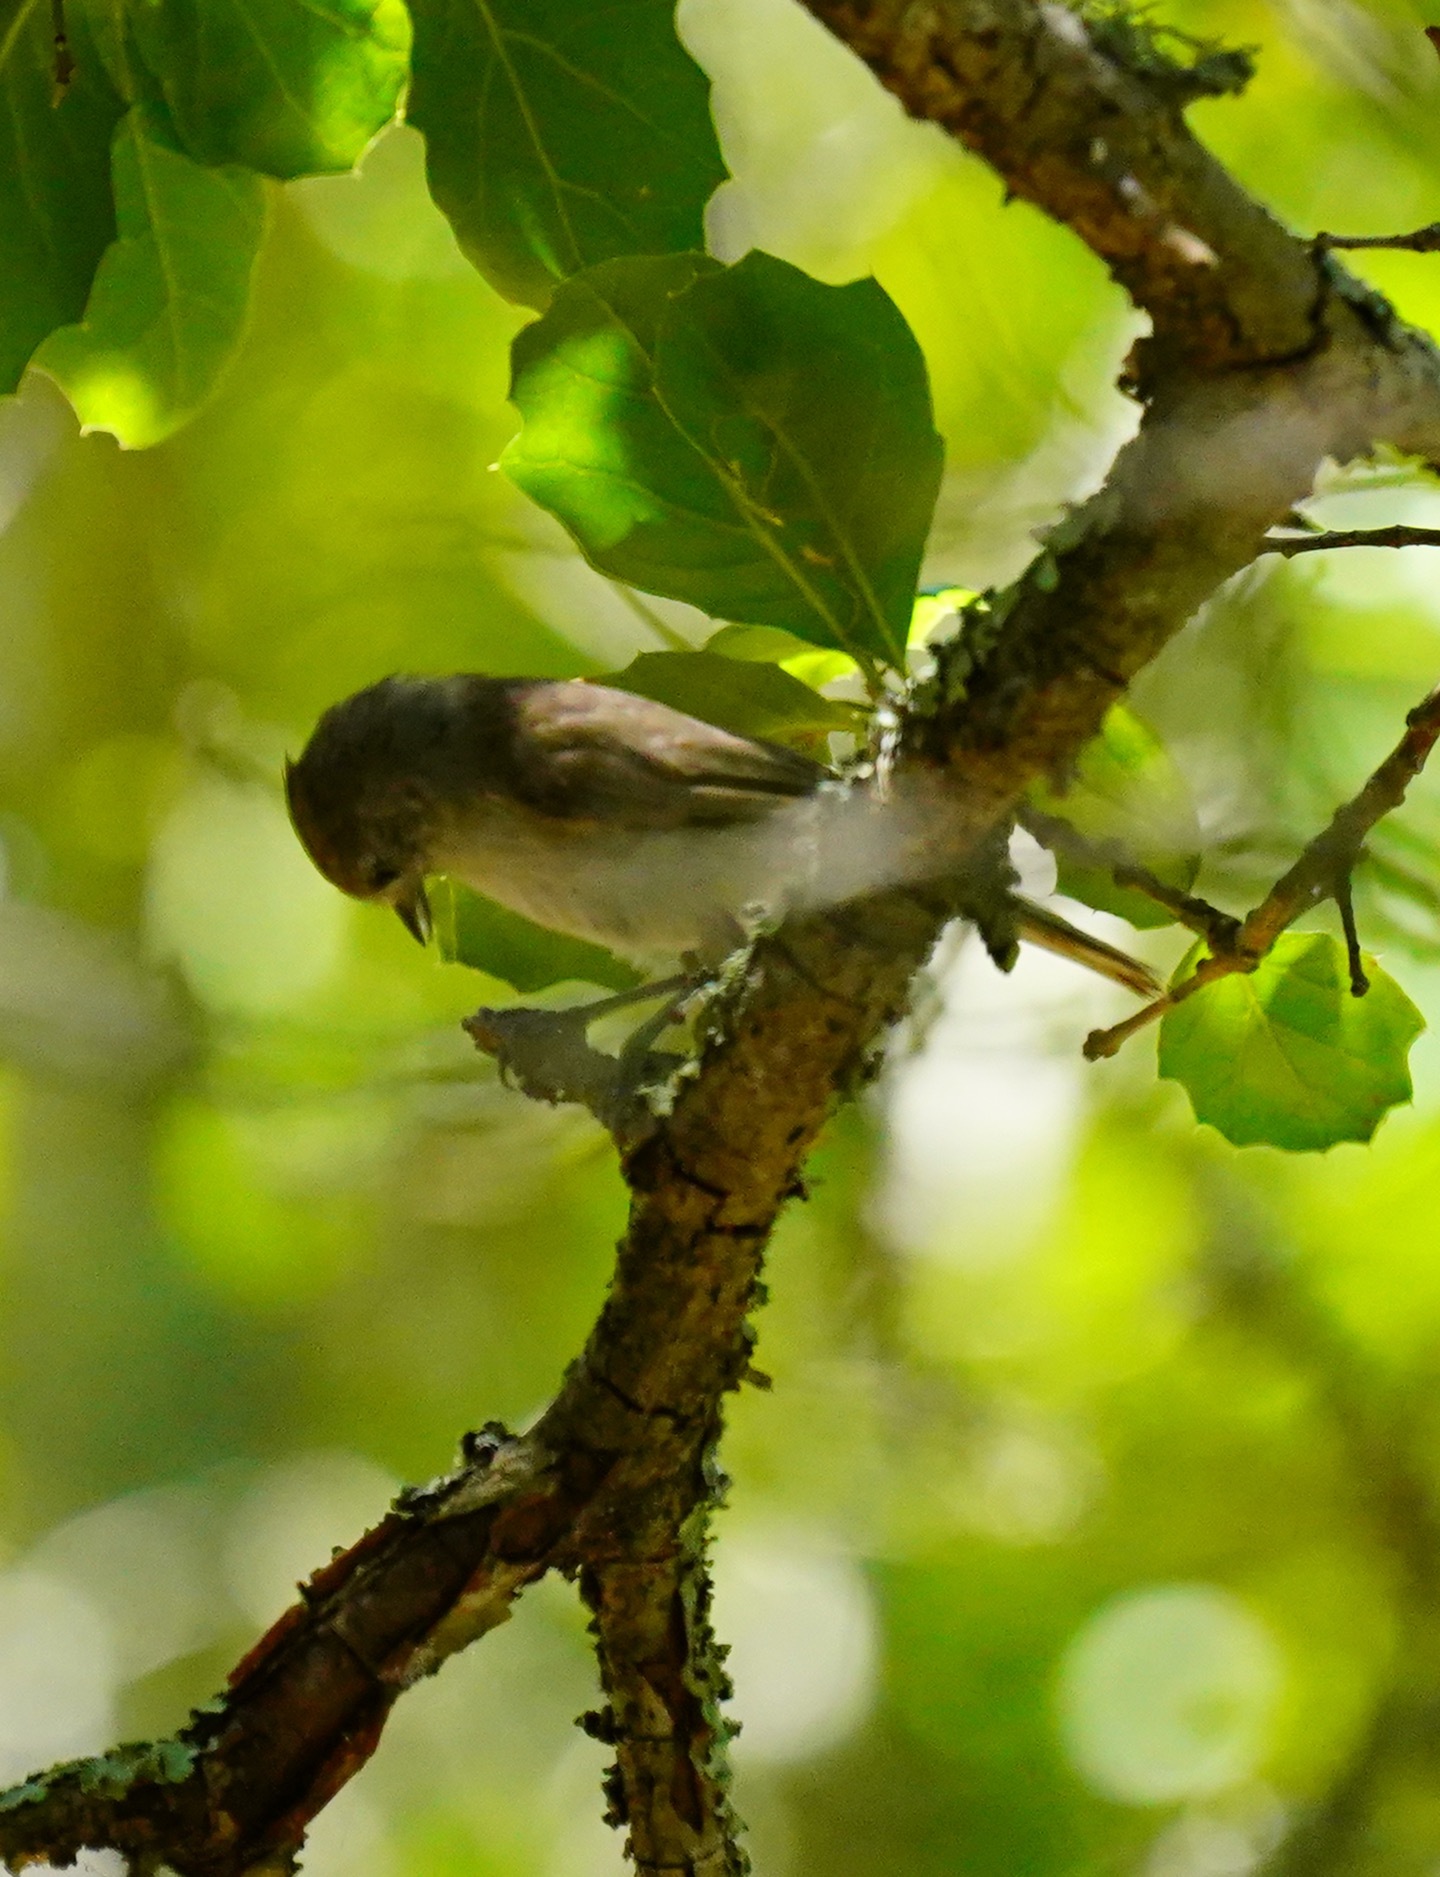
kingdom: Animalia
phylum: Chordata
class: Aves
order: Passeriformes
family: Paridae
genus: Baeolophus
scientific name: Baeolophus inornatus
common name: Oak titmouse
